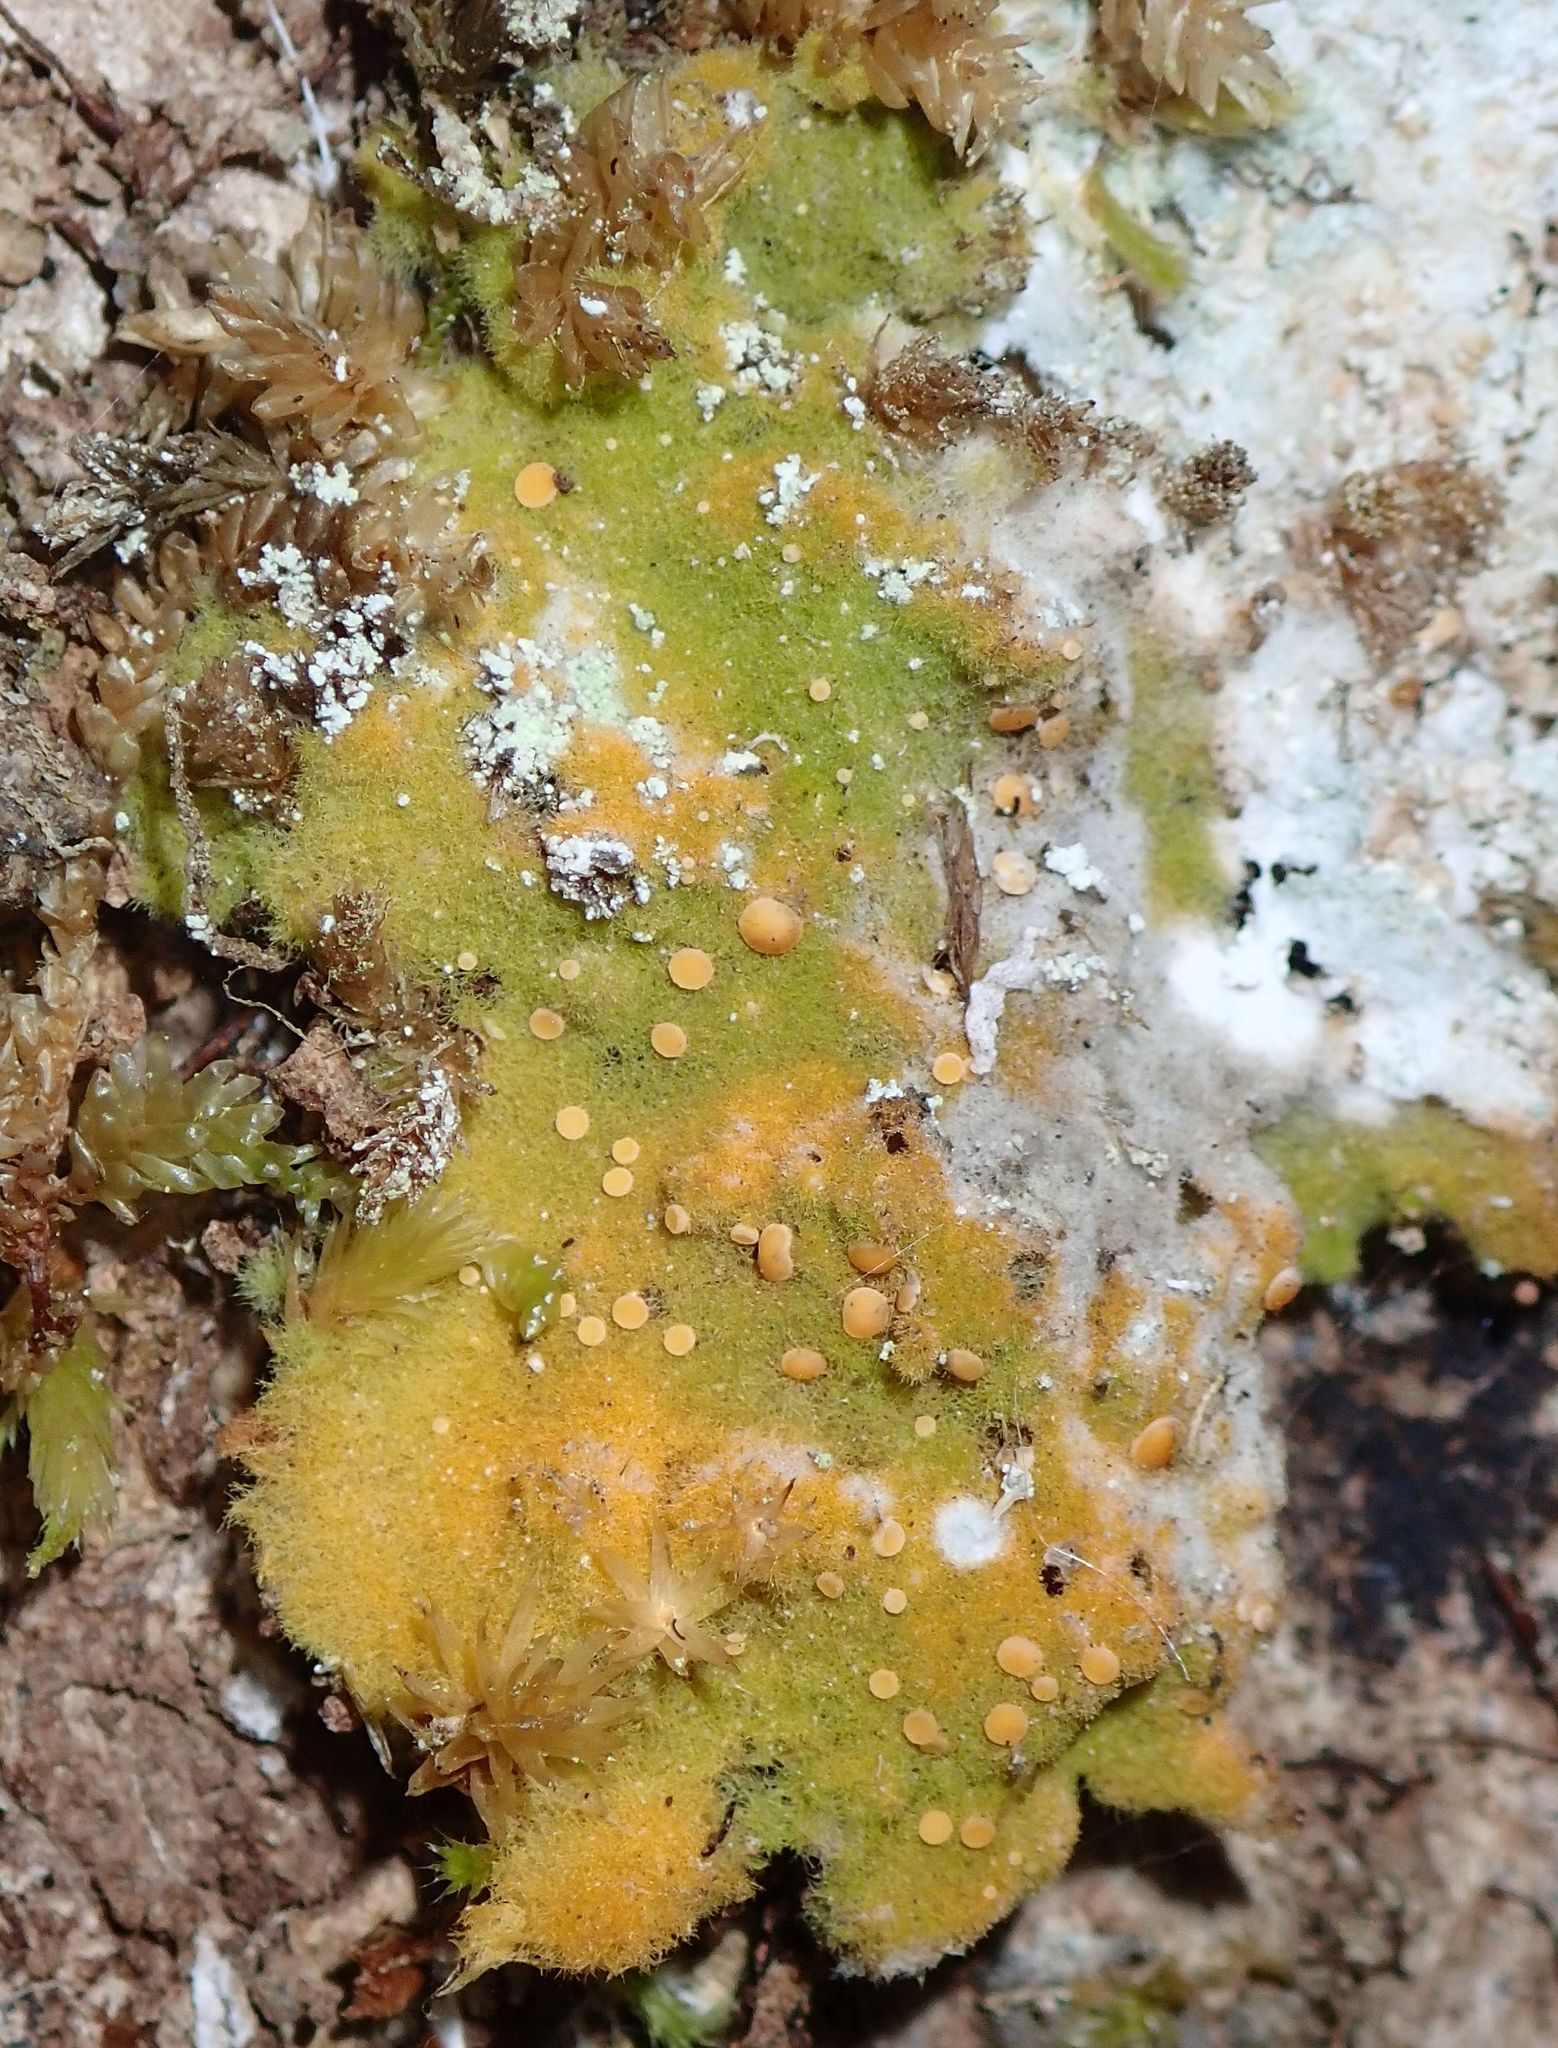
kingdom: Fungi
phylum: Ascomycota
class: Lecanoromycetes
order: Ostropales
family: Coenogoniaceae
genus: Coenogonium
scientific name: Coenogonium implexum
